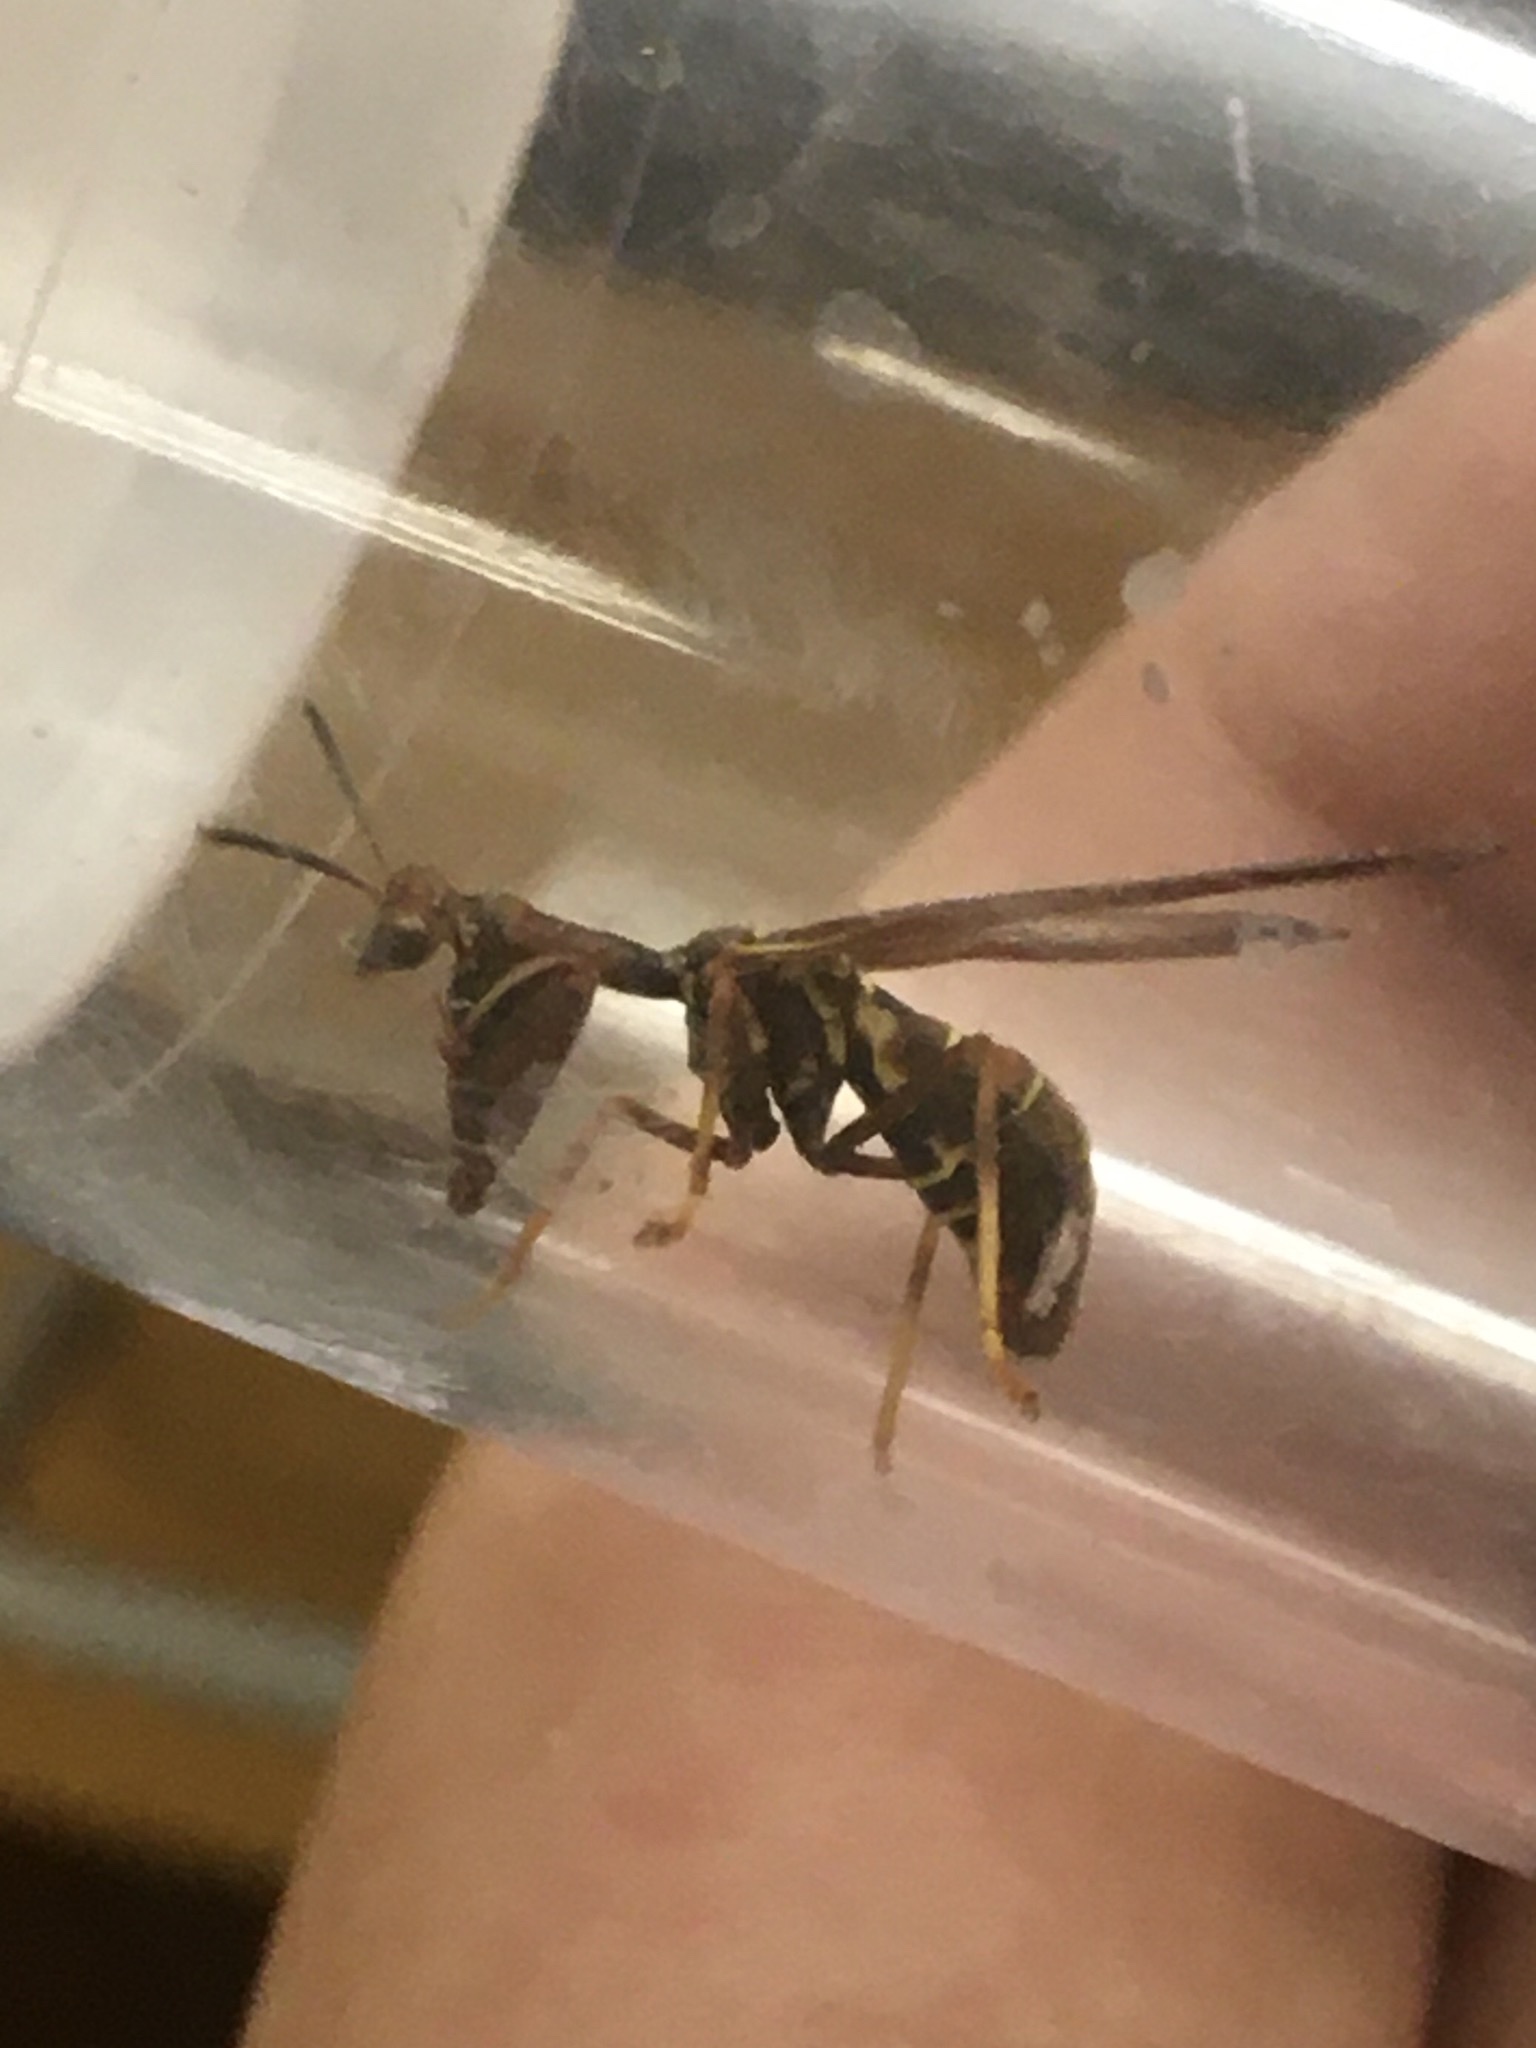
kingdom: Animalia
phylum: Arthropoda
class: Insecta
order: Neuroptera
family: Mantispidae
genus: Climaciella
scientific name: Climaciella brunnea
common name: Brown wasp mantidfly
